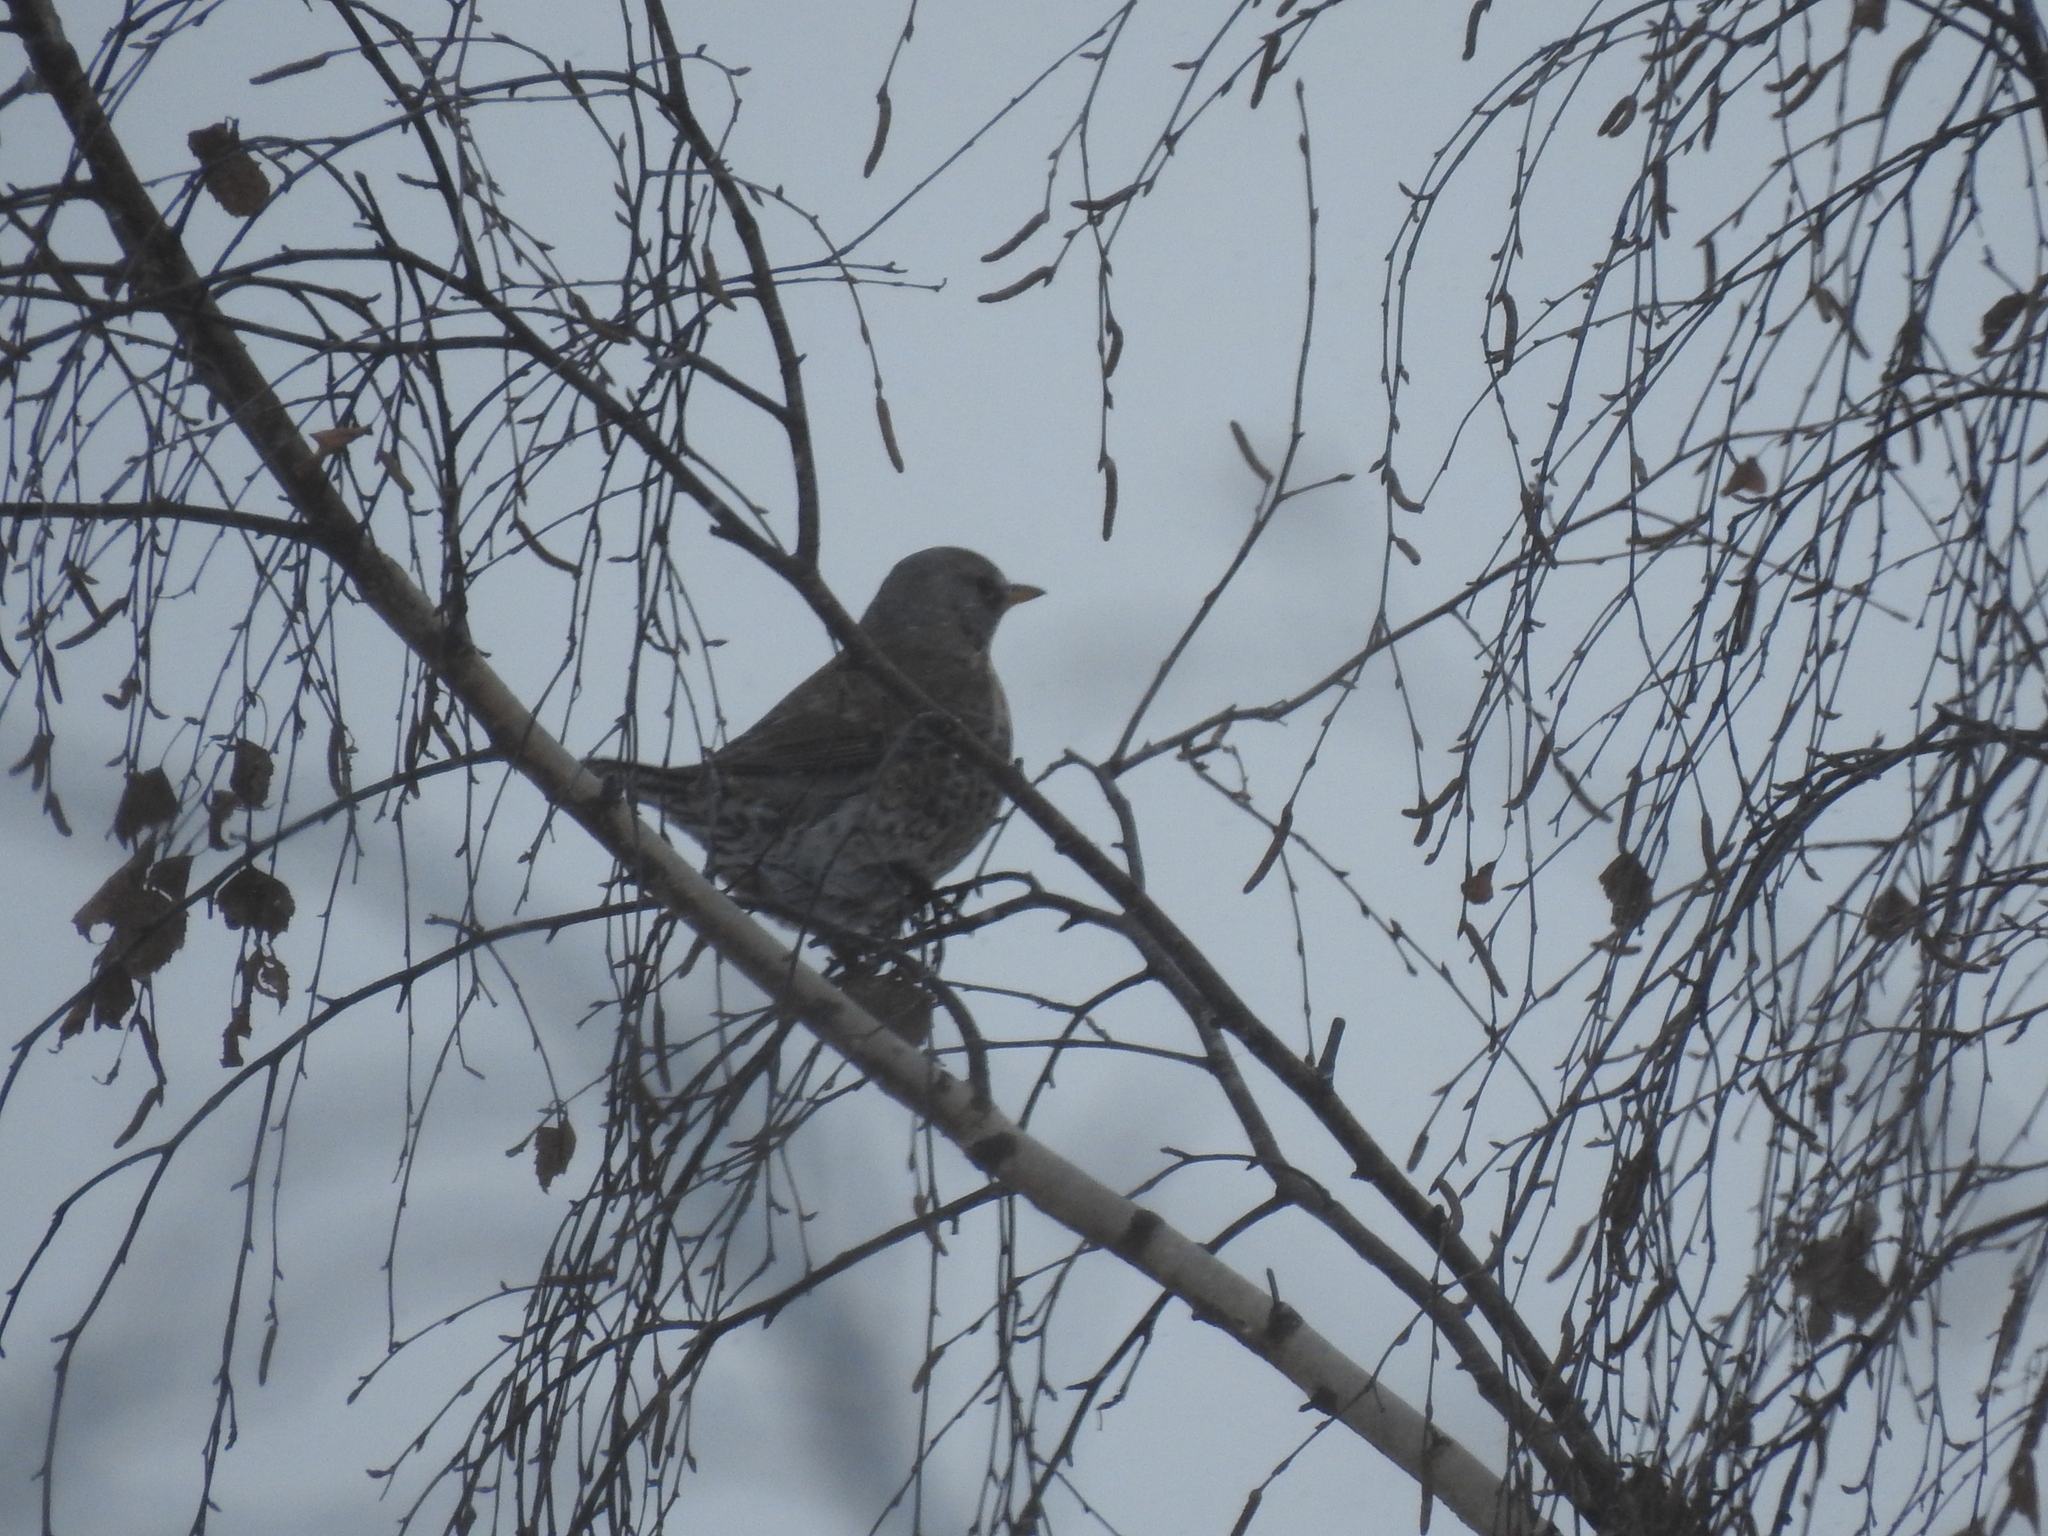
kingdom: Animalia
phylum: Chordata
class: Aves
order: Passeriformes
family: Turdidae
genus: Turdus
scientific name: Turdus pilaris
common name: Fieldfare
